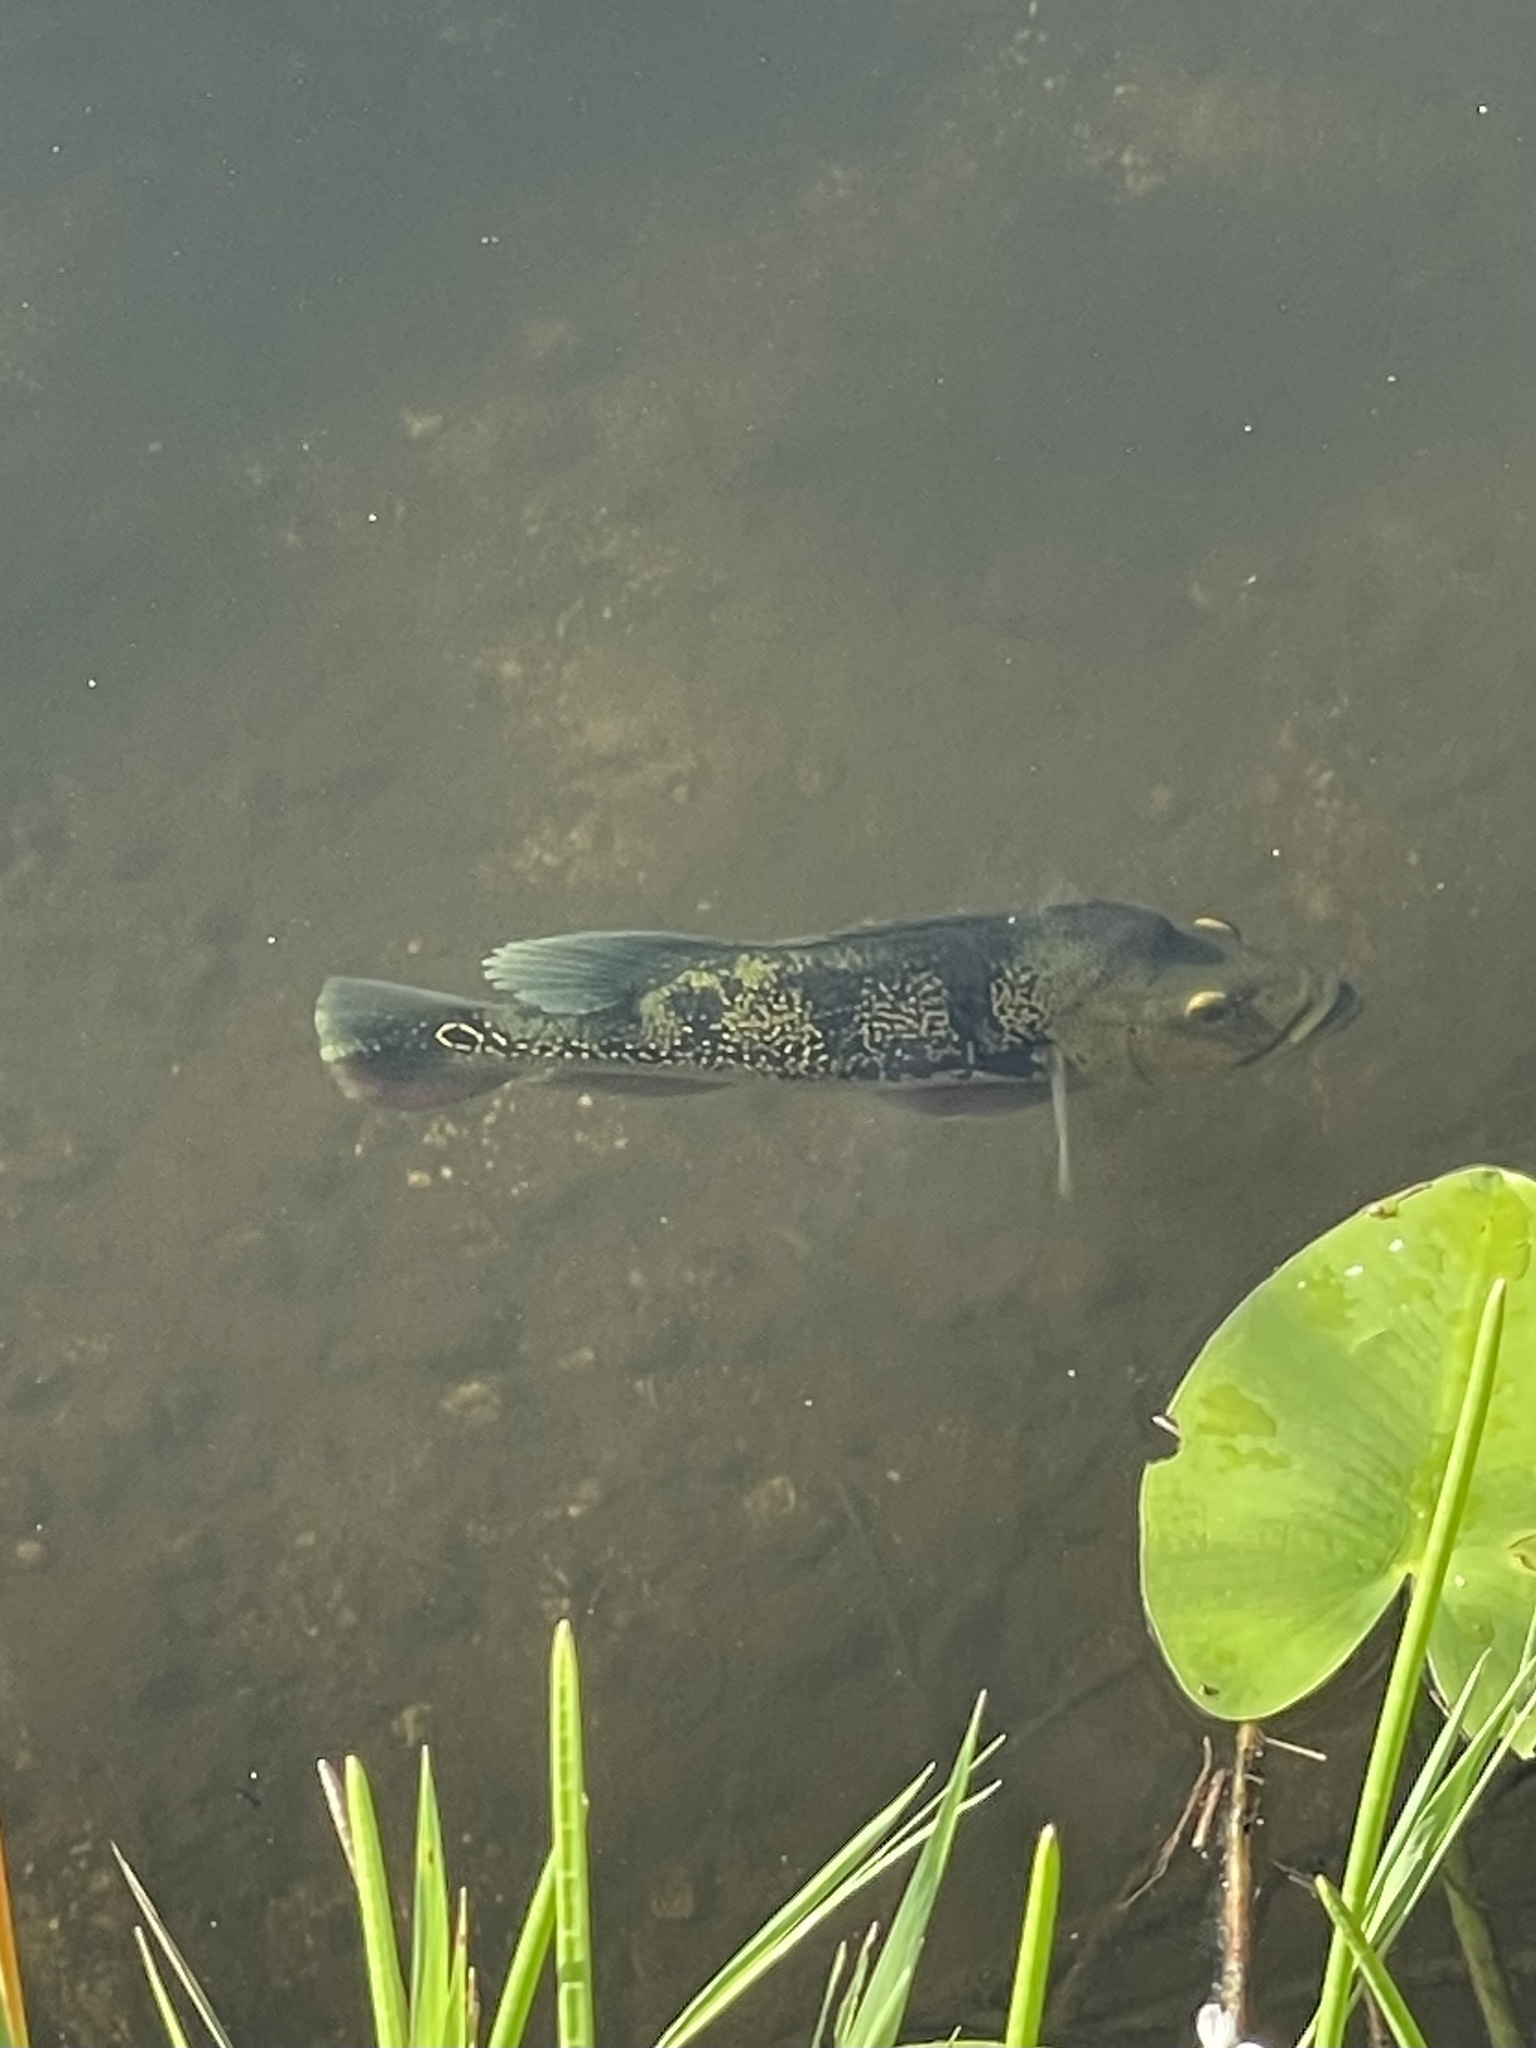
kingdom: Animalia
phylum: Chordata
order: Perciformes
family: Cichlidae
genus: Cichla
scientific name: Cichla ocellaris
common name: Peacock cichlid
